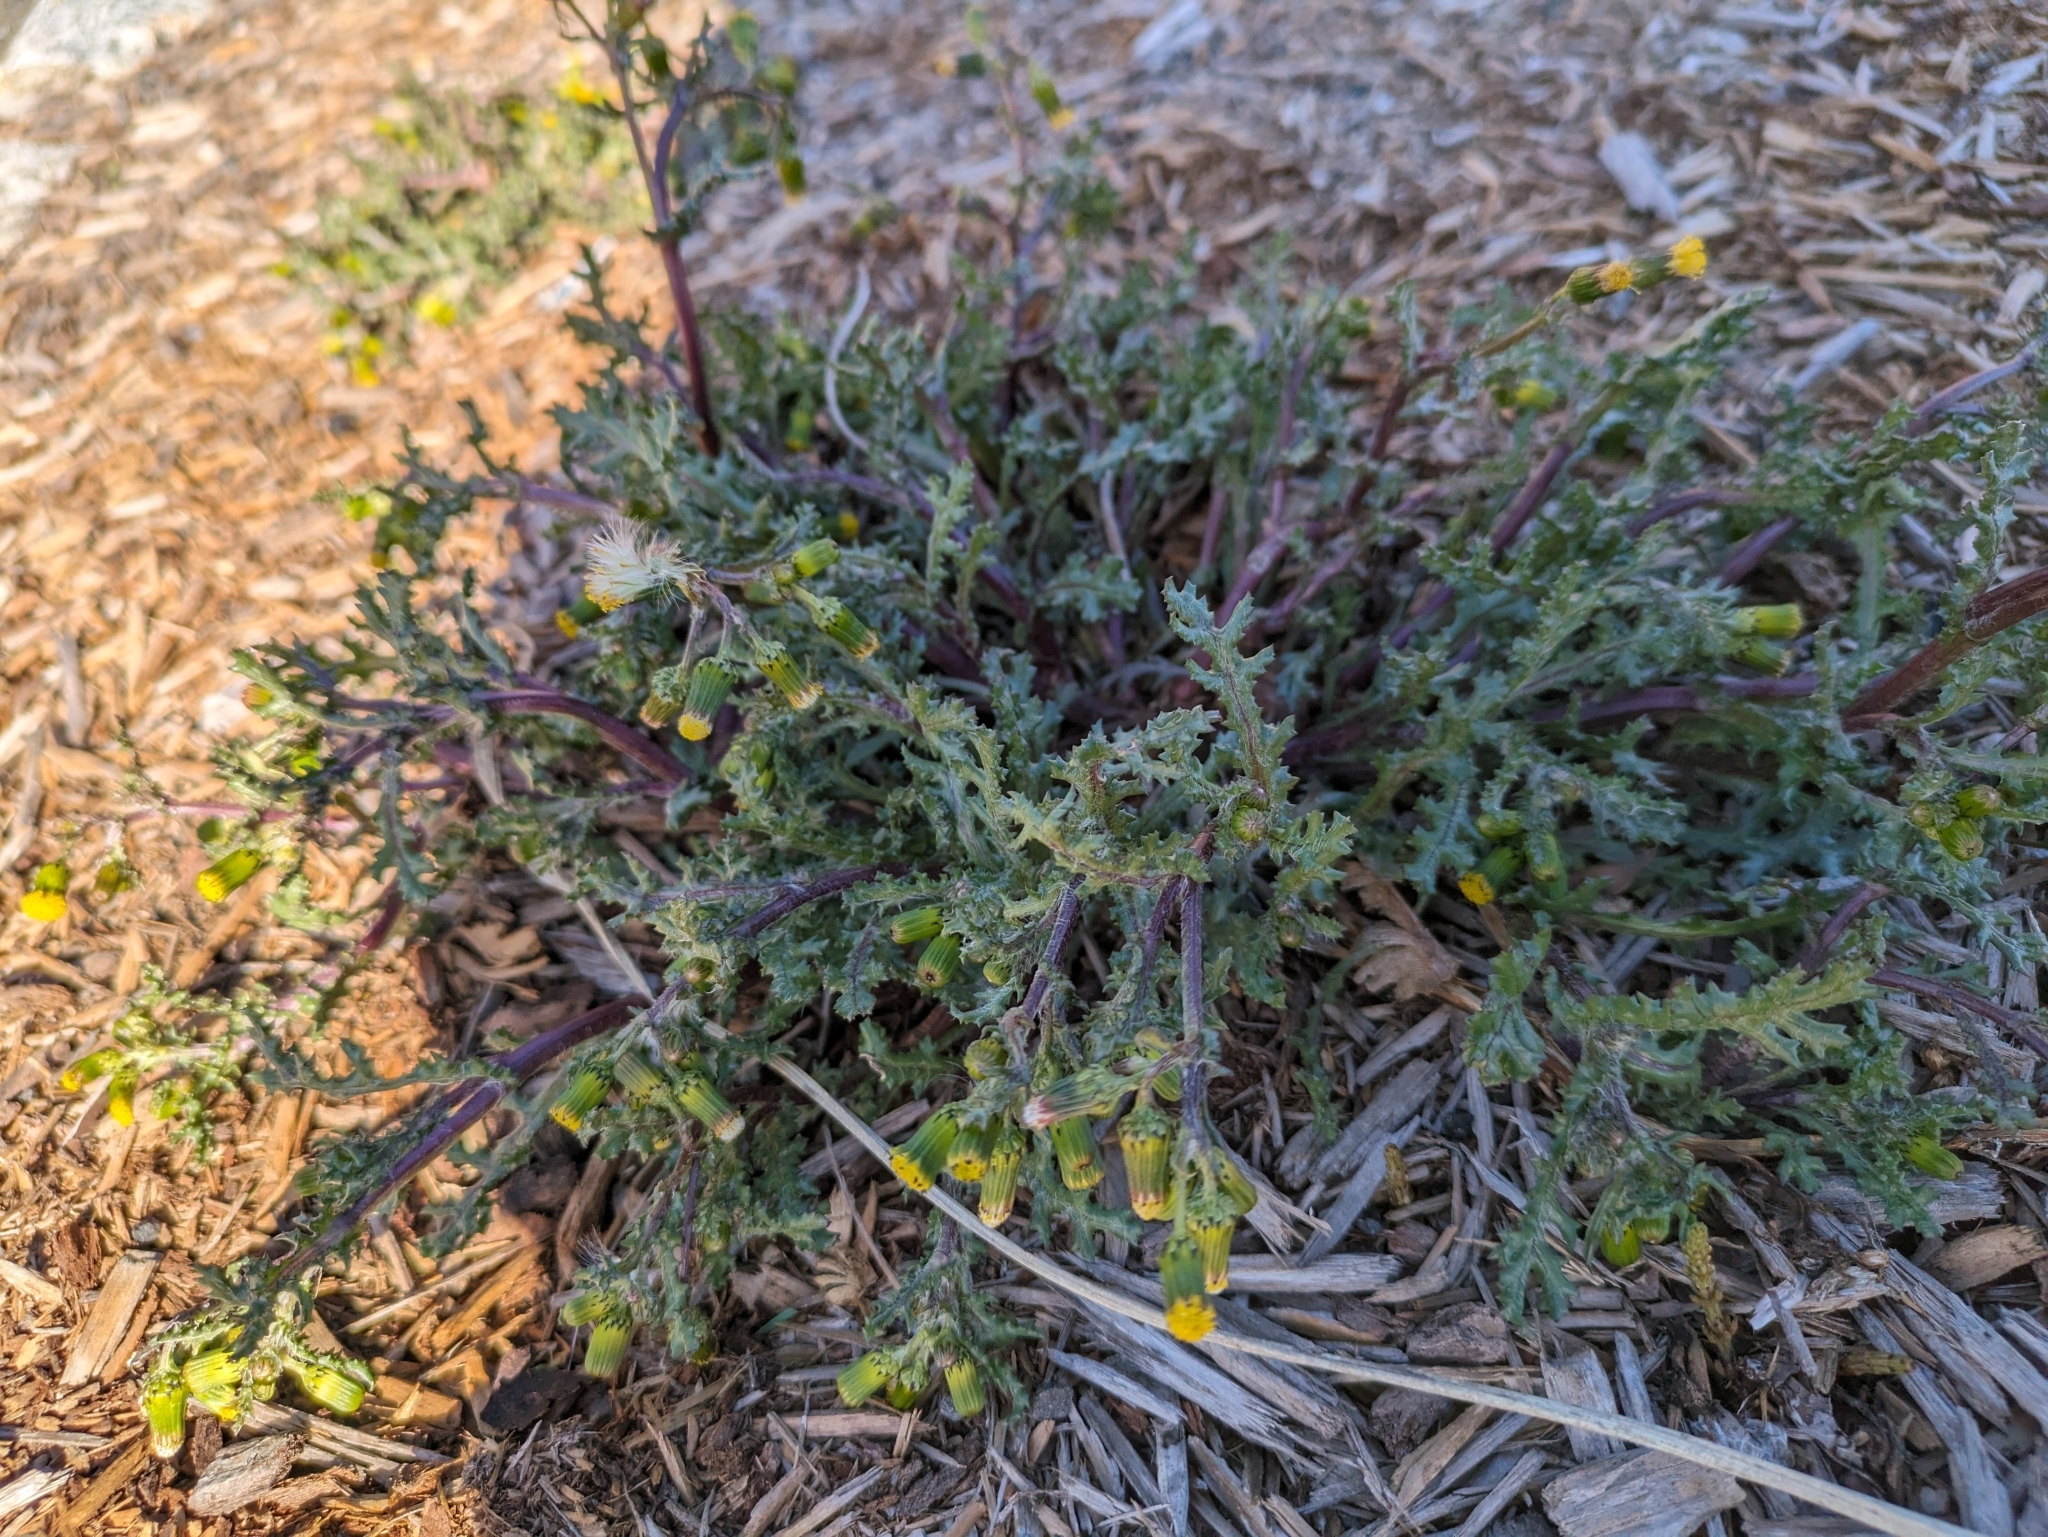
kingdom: Plantae
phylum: Tracheophyta
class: Magnoliopsida
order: Asterales
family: Asteraceae
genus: Senecio
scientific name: Senecio vulgaris
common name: Old-man-in-the-spring
